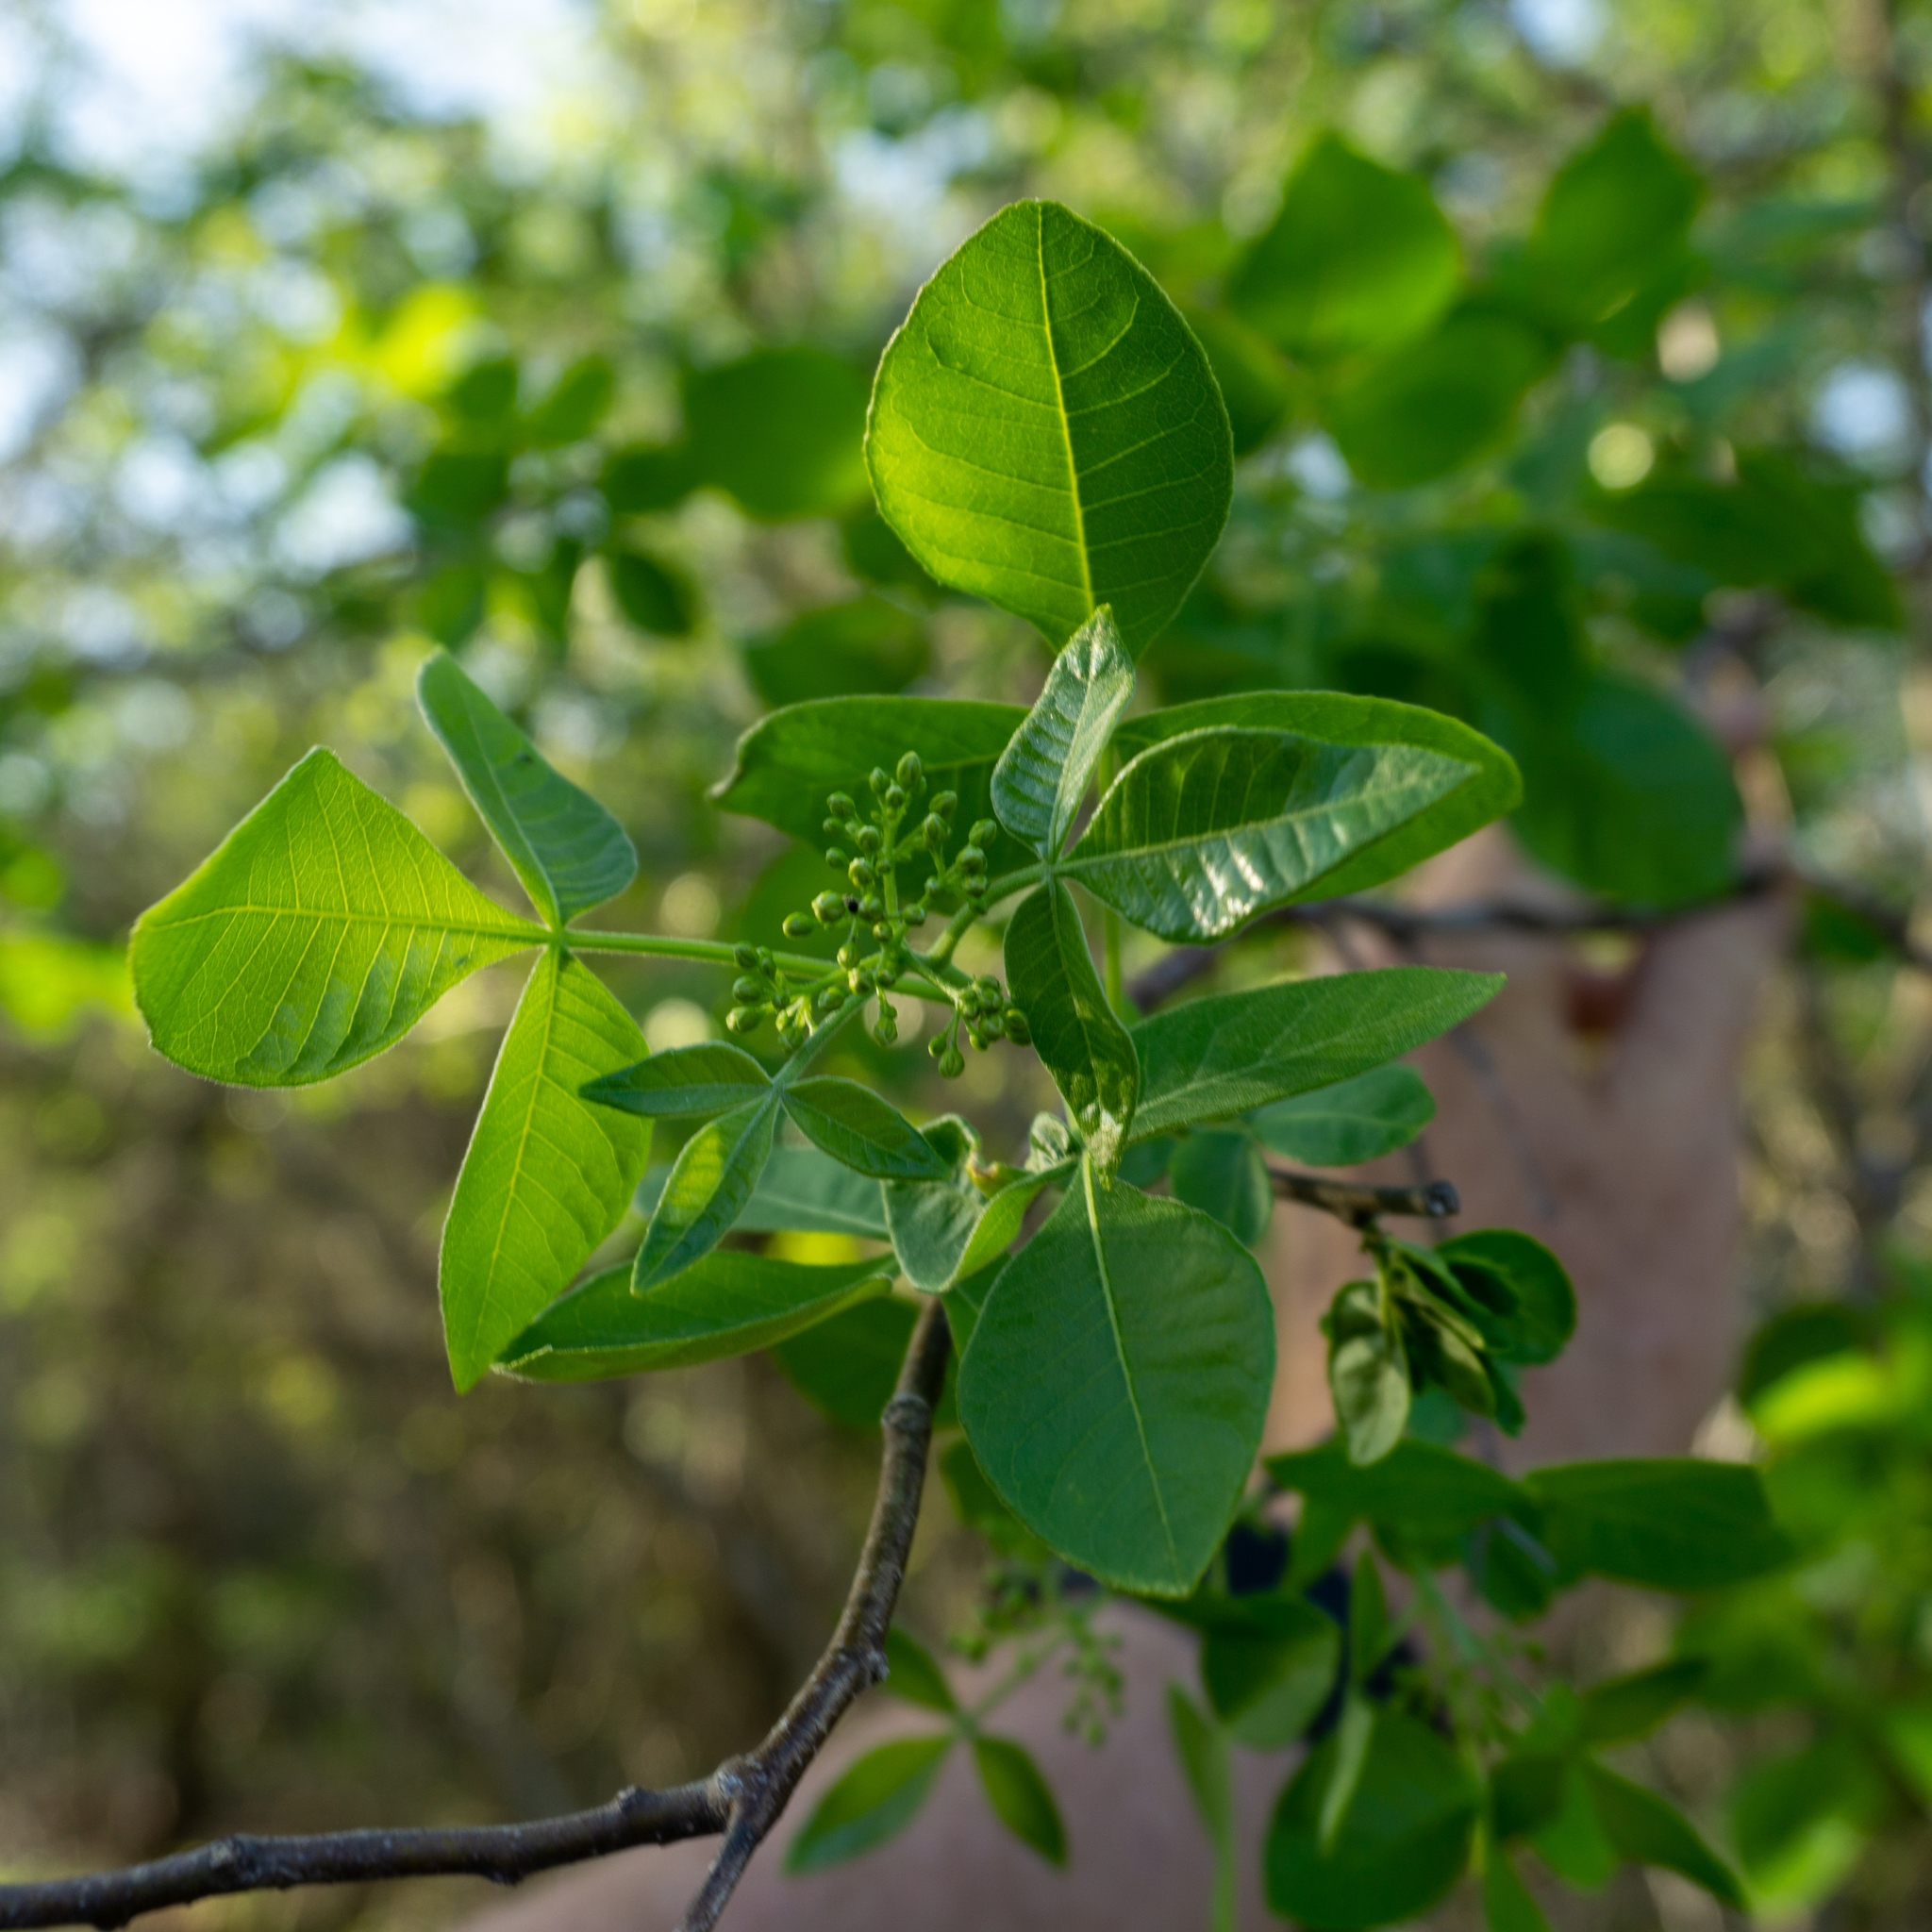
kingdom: Plantae
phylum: Tracheophyta
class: Magnoliopsida
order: Sapindales
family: Rutaceae
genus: Ptelea
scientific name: Ptelea trifoliata
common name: Common hop-tree
